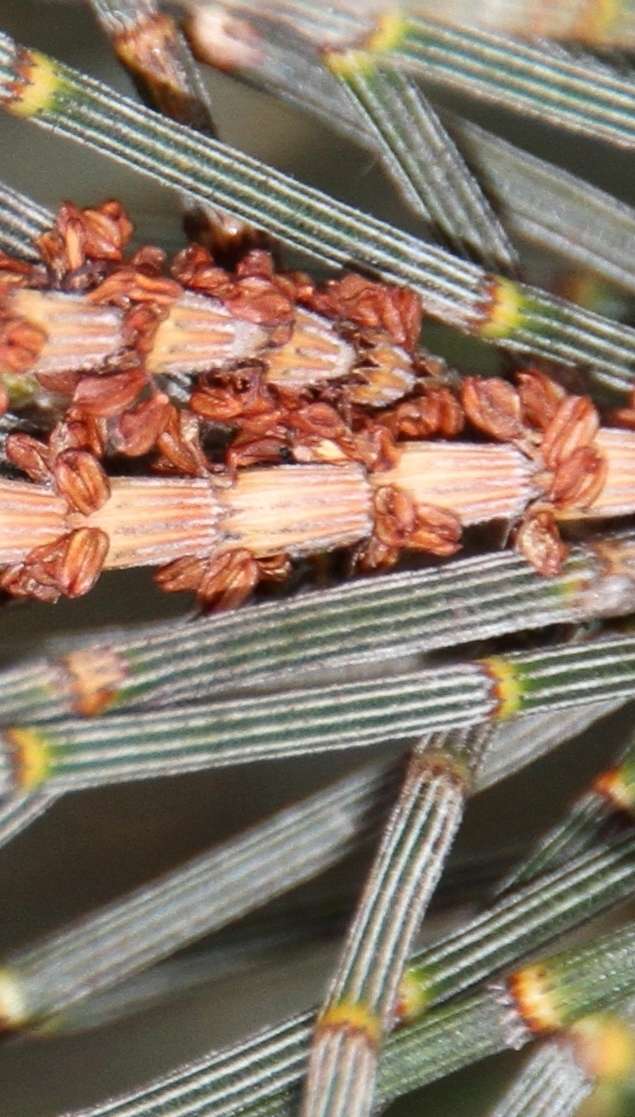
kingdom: Plantae
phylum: Tracheophyta
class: Magnoliopsida
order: Fagales
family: Casuarinaceae
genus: Allocasuarina
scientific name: Allocasuarina verticillata
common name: Drooping she-oak
